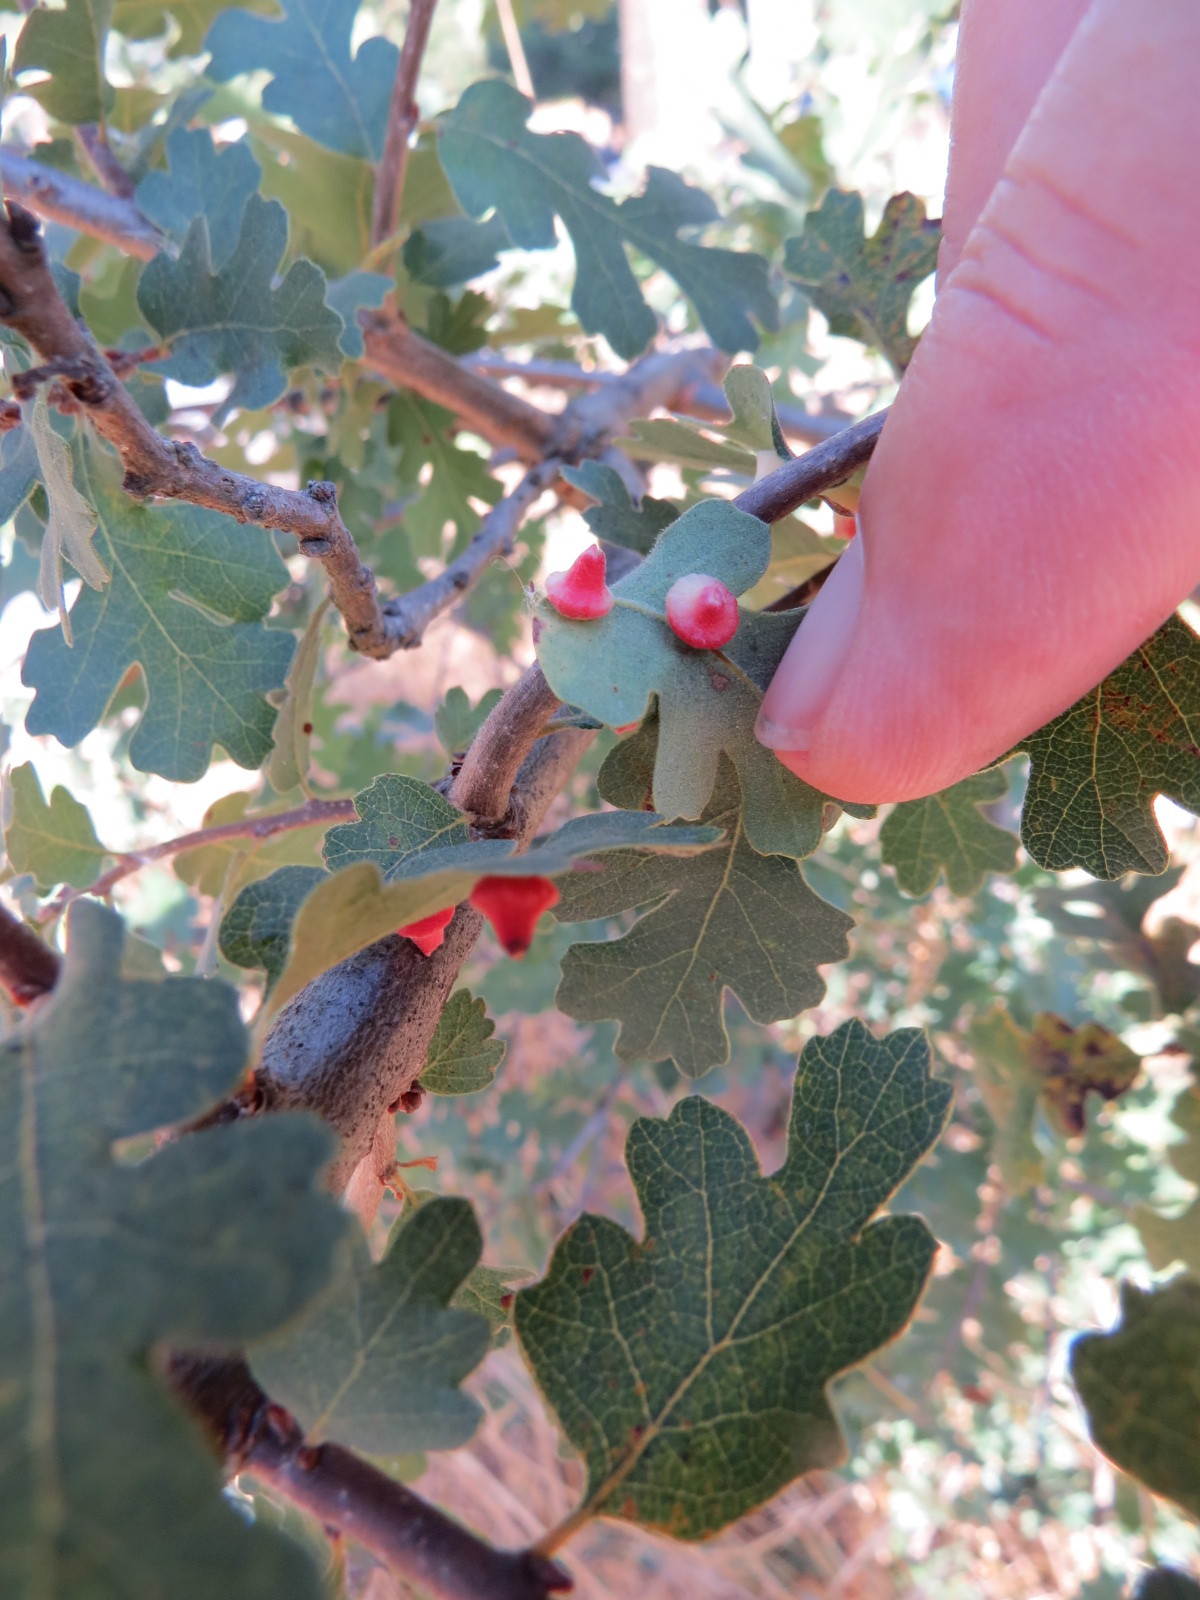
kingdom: Animalia
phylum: Arthropoda
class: Insecta
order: Hymenoptera
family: Cynipidae
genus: Andricus
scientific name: Andricus
